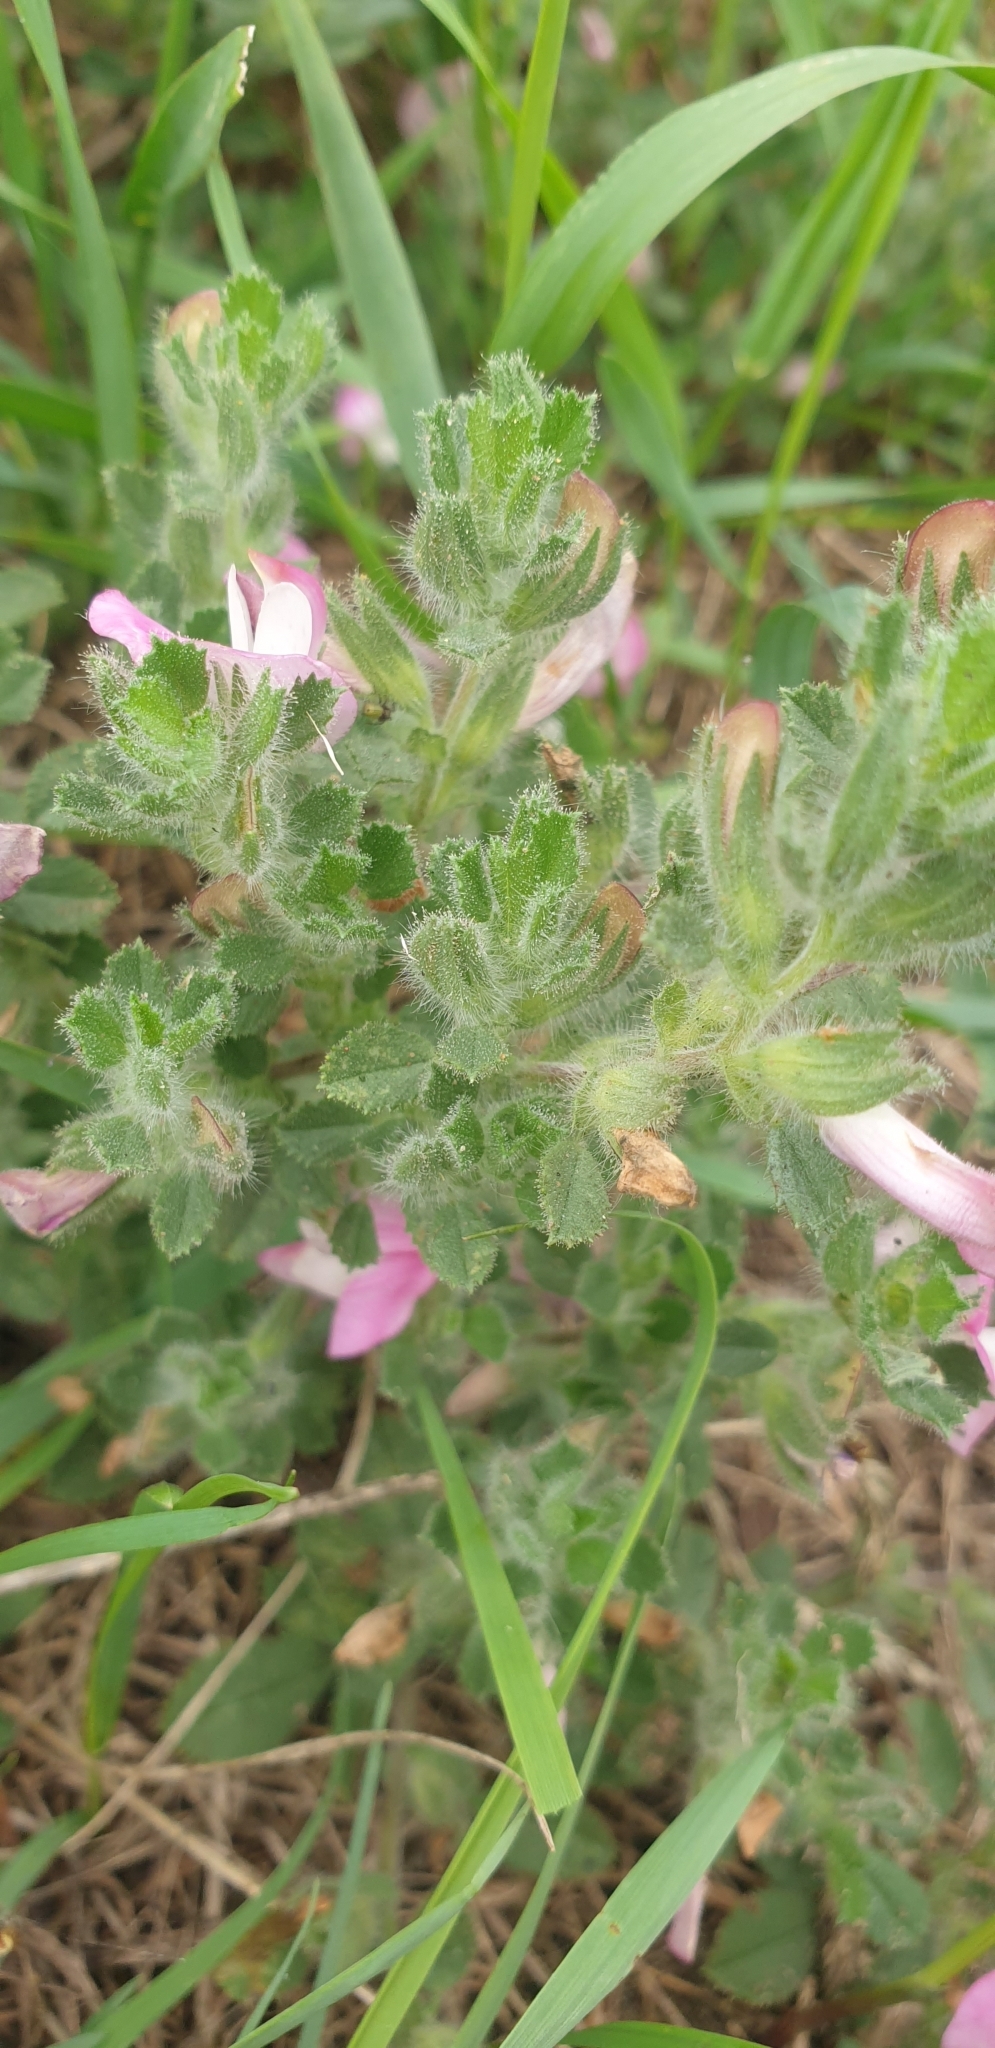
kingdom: Plantae
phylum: Tracheophyta
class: Magnoliopsida
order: Fabales
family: Fabaceae
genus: Ononis
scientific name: Ononis spinosa
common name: Spiny restharrow
